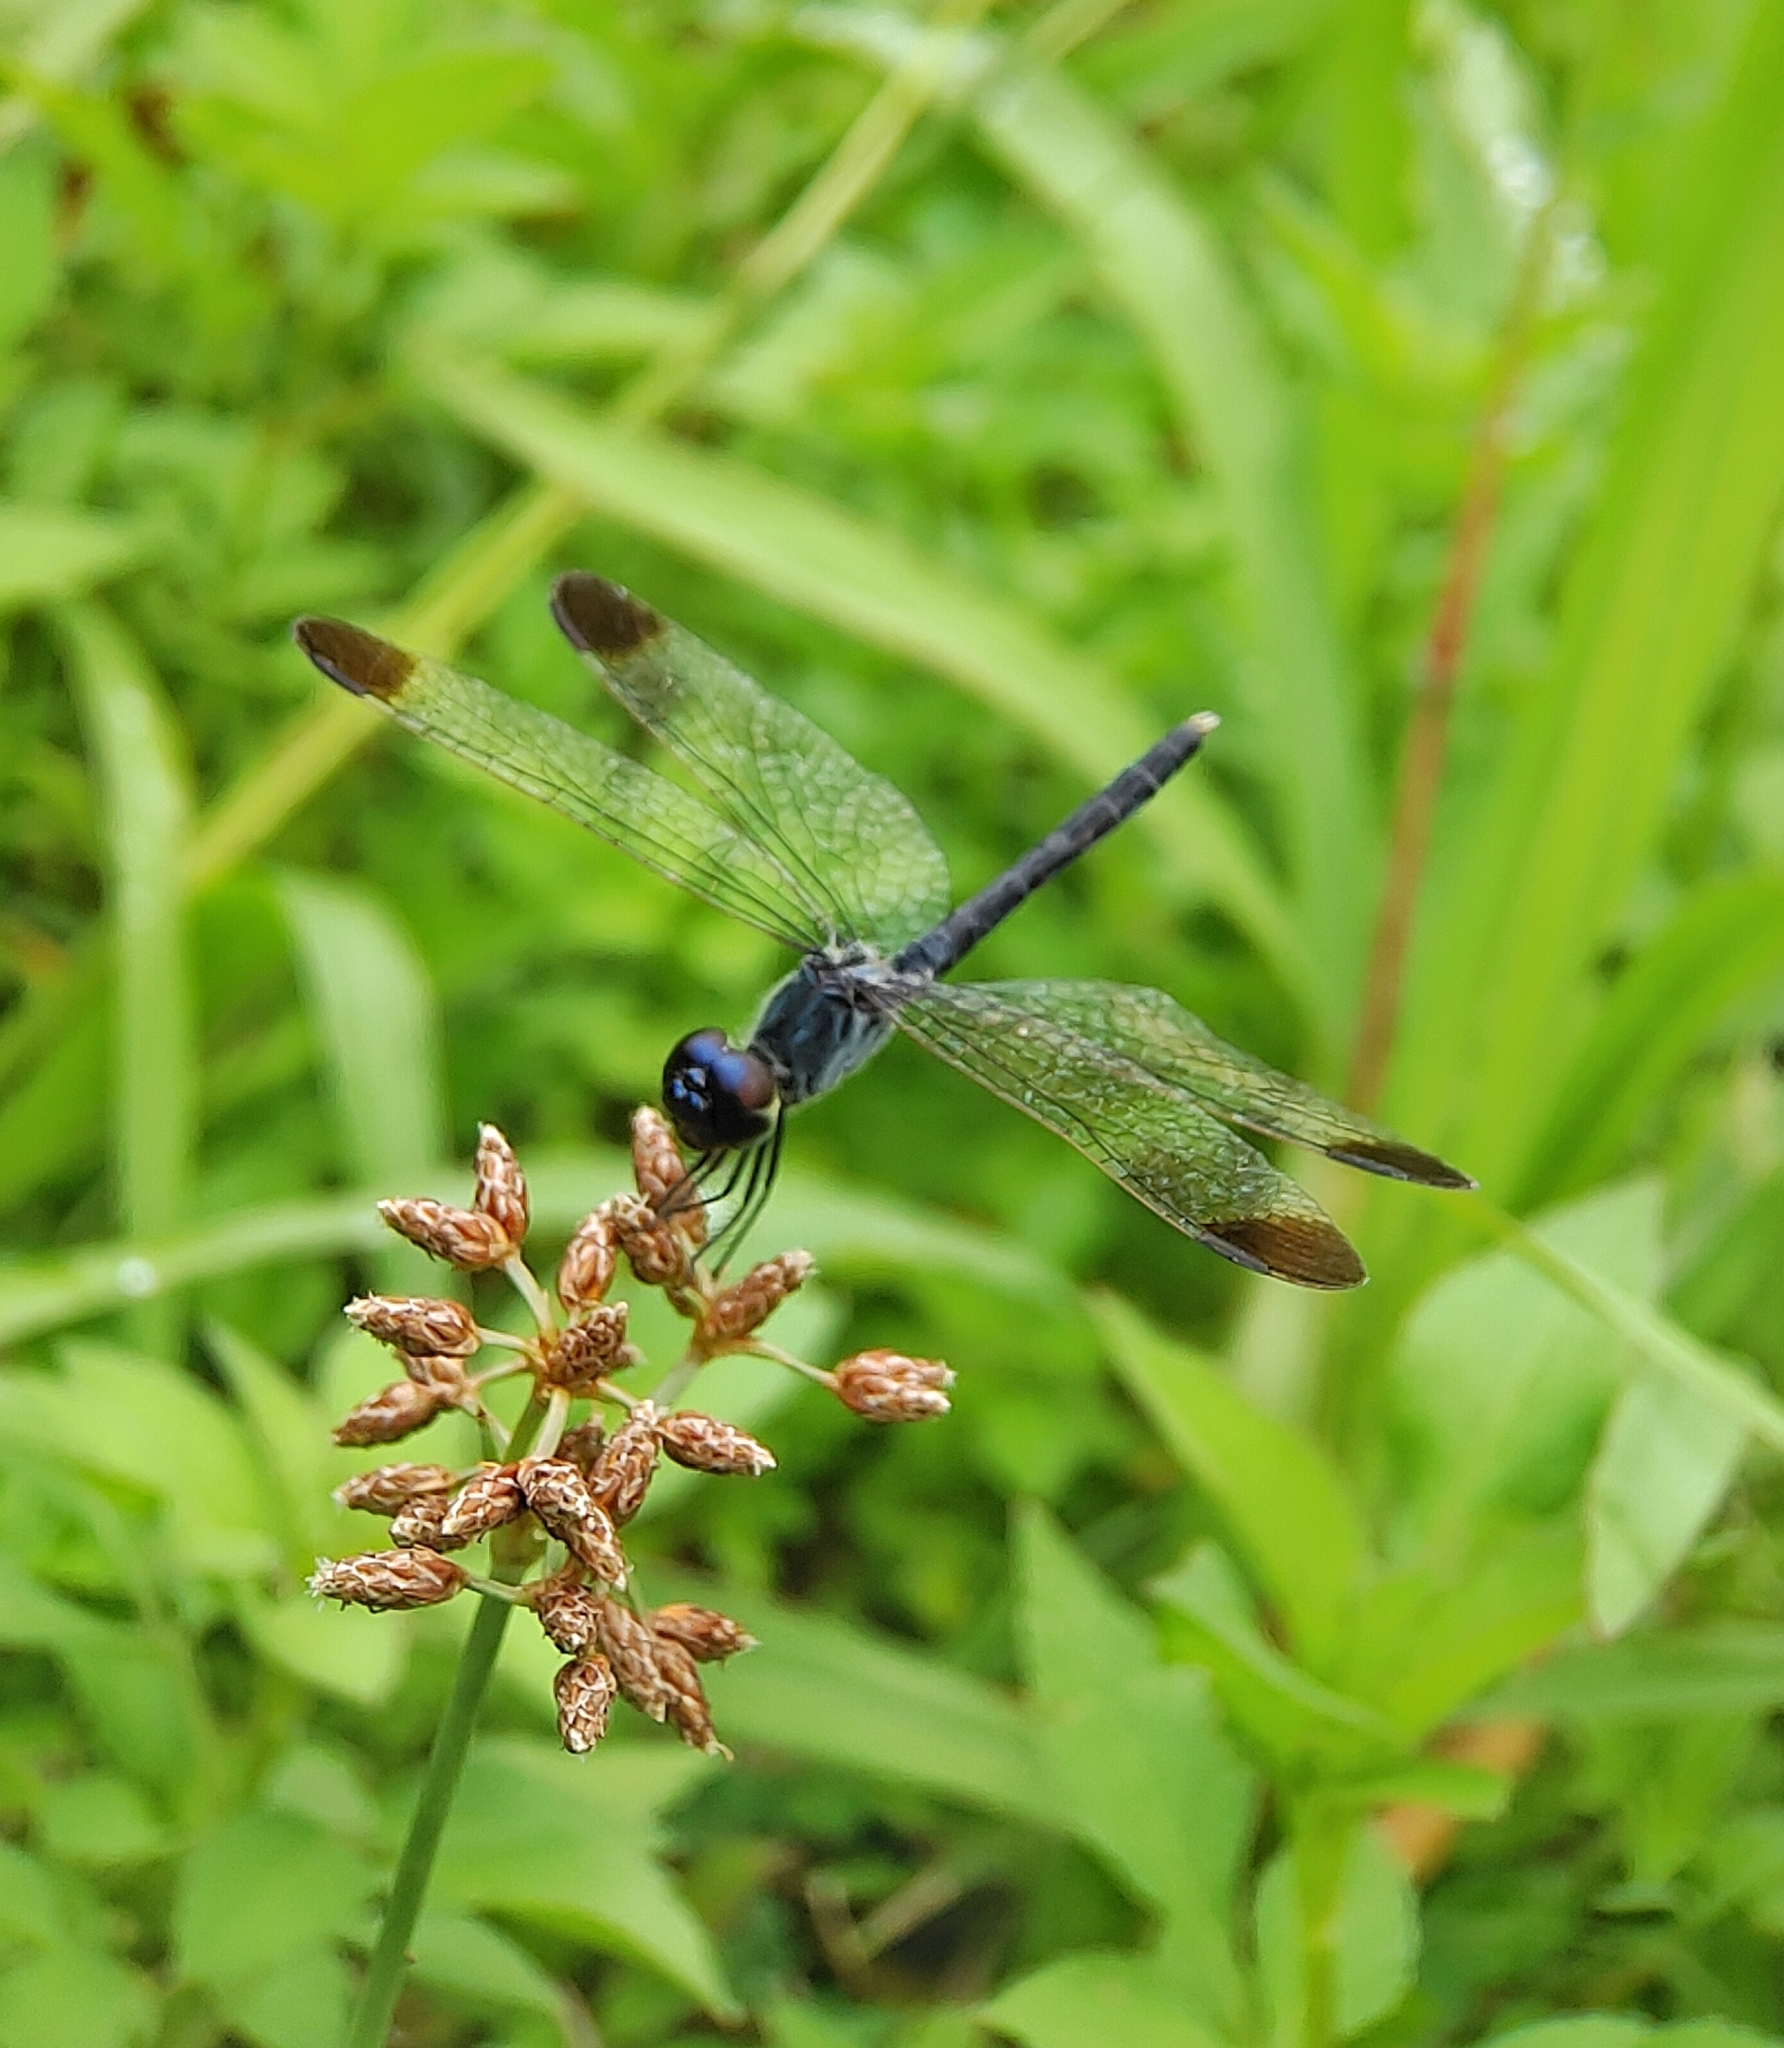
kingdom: Animalia
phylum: Arthropoda
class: Insecta
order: Odonata
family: Libellulidae
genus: Diplacodes
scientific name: Diplacodes nebulosa
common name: Black-tipped percher
